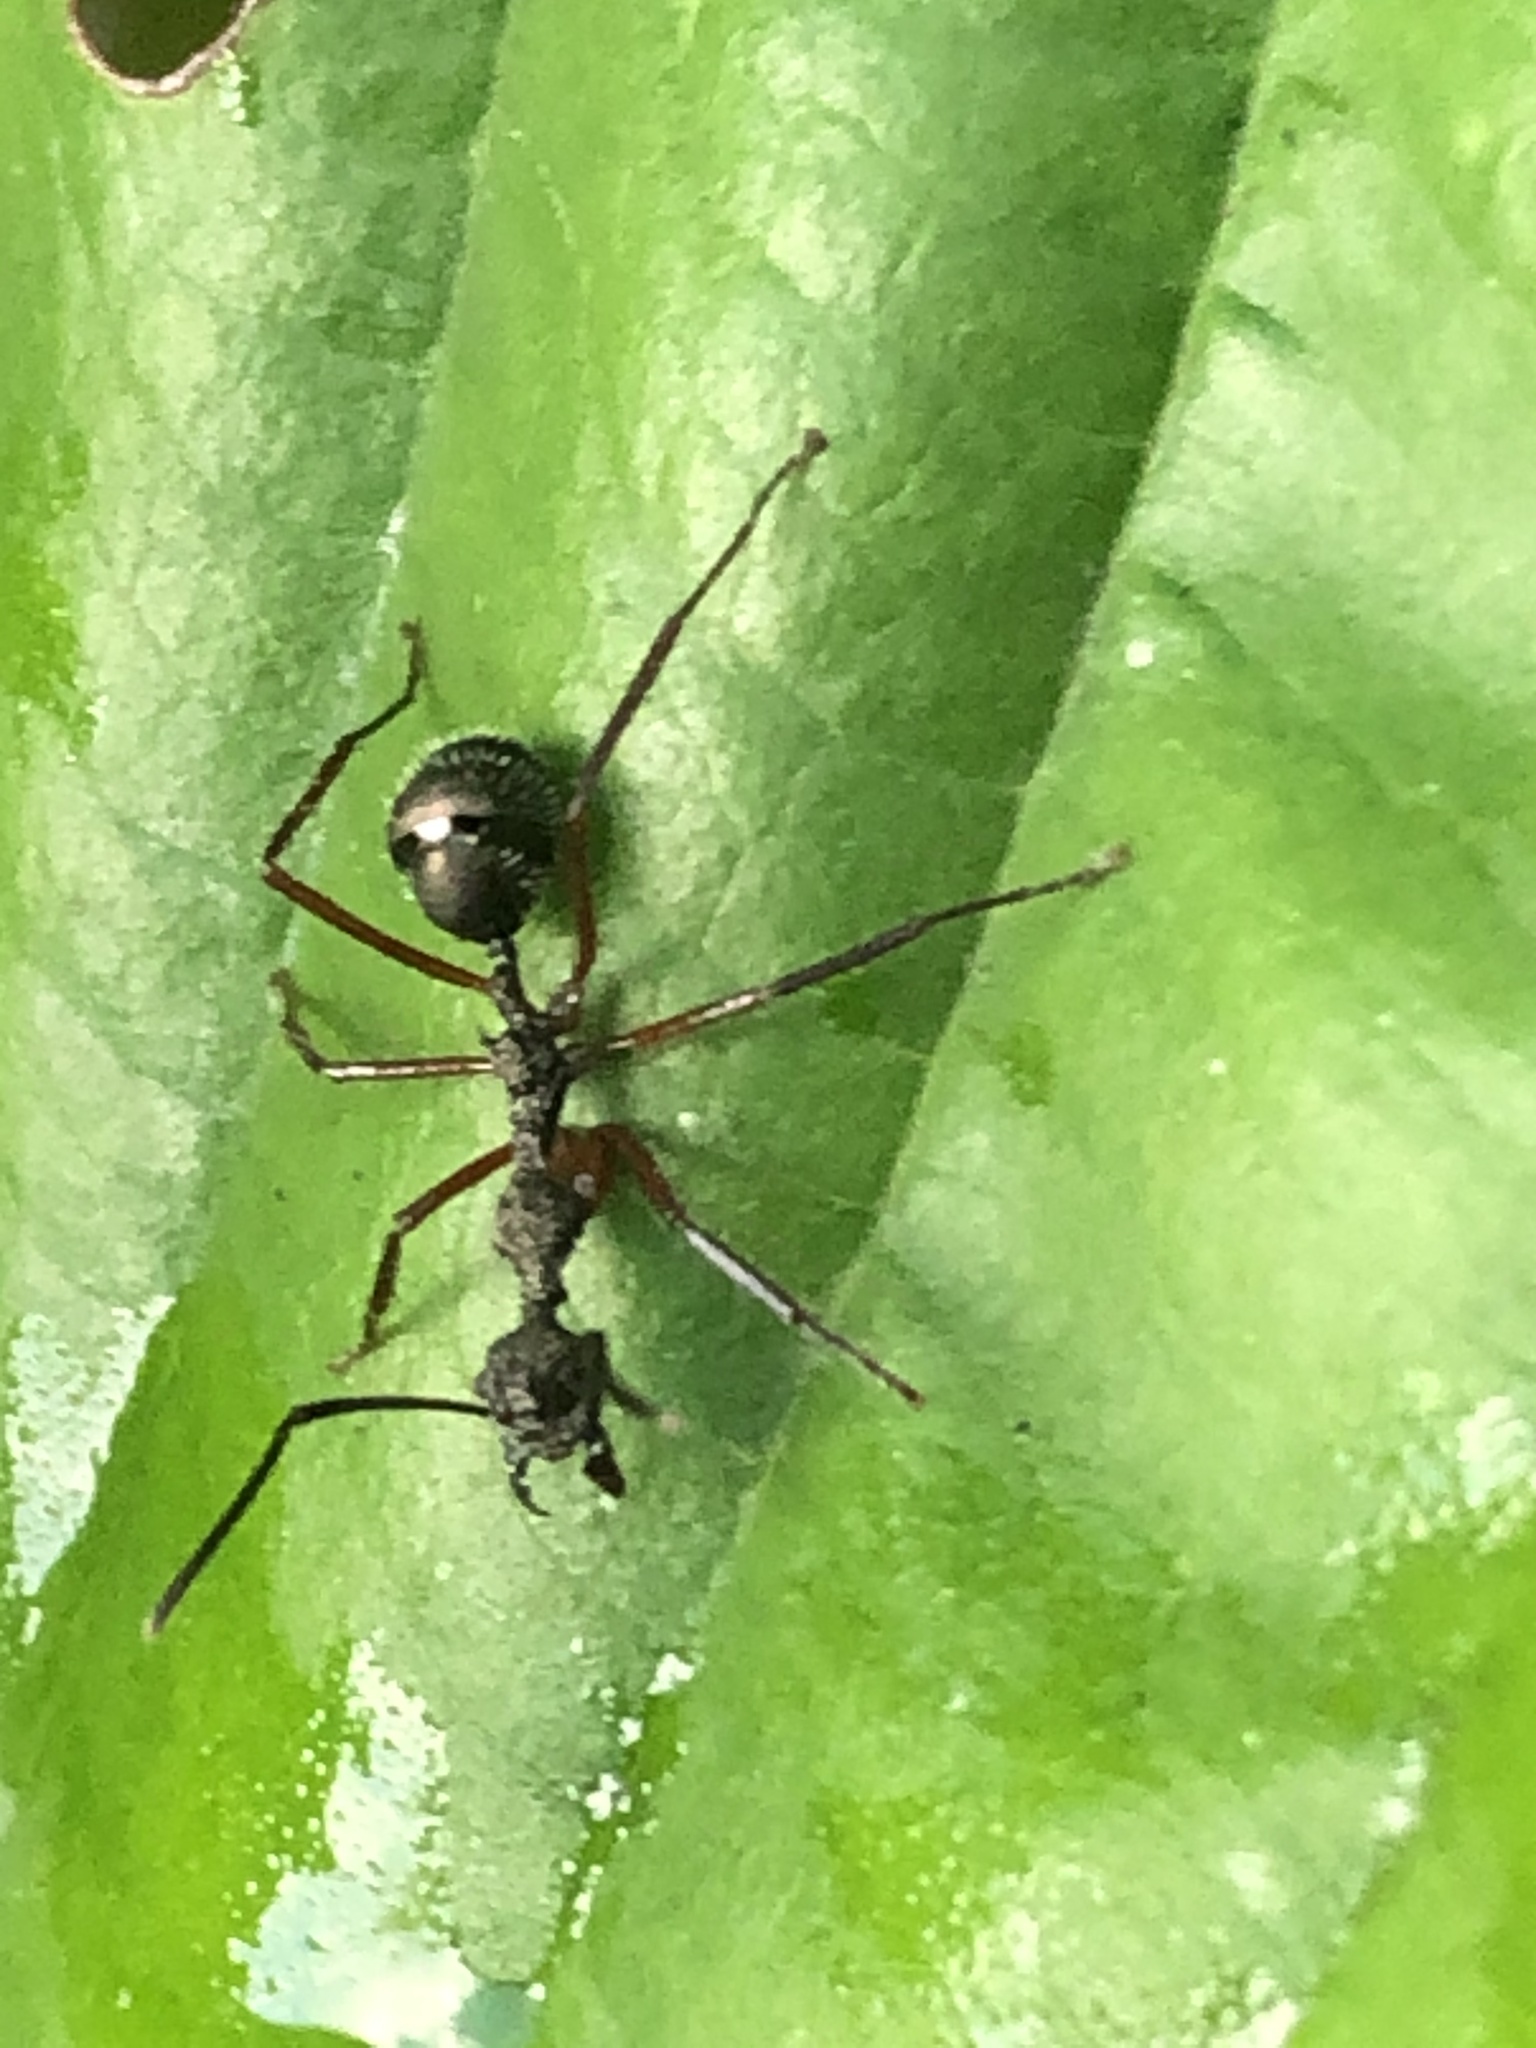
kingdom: Animalia
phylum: Arthropoda
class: Insecta
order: Hymenoptera
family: Formicidae
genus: Dolichoderus
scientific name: Dolichoderus attelaboides
